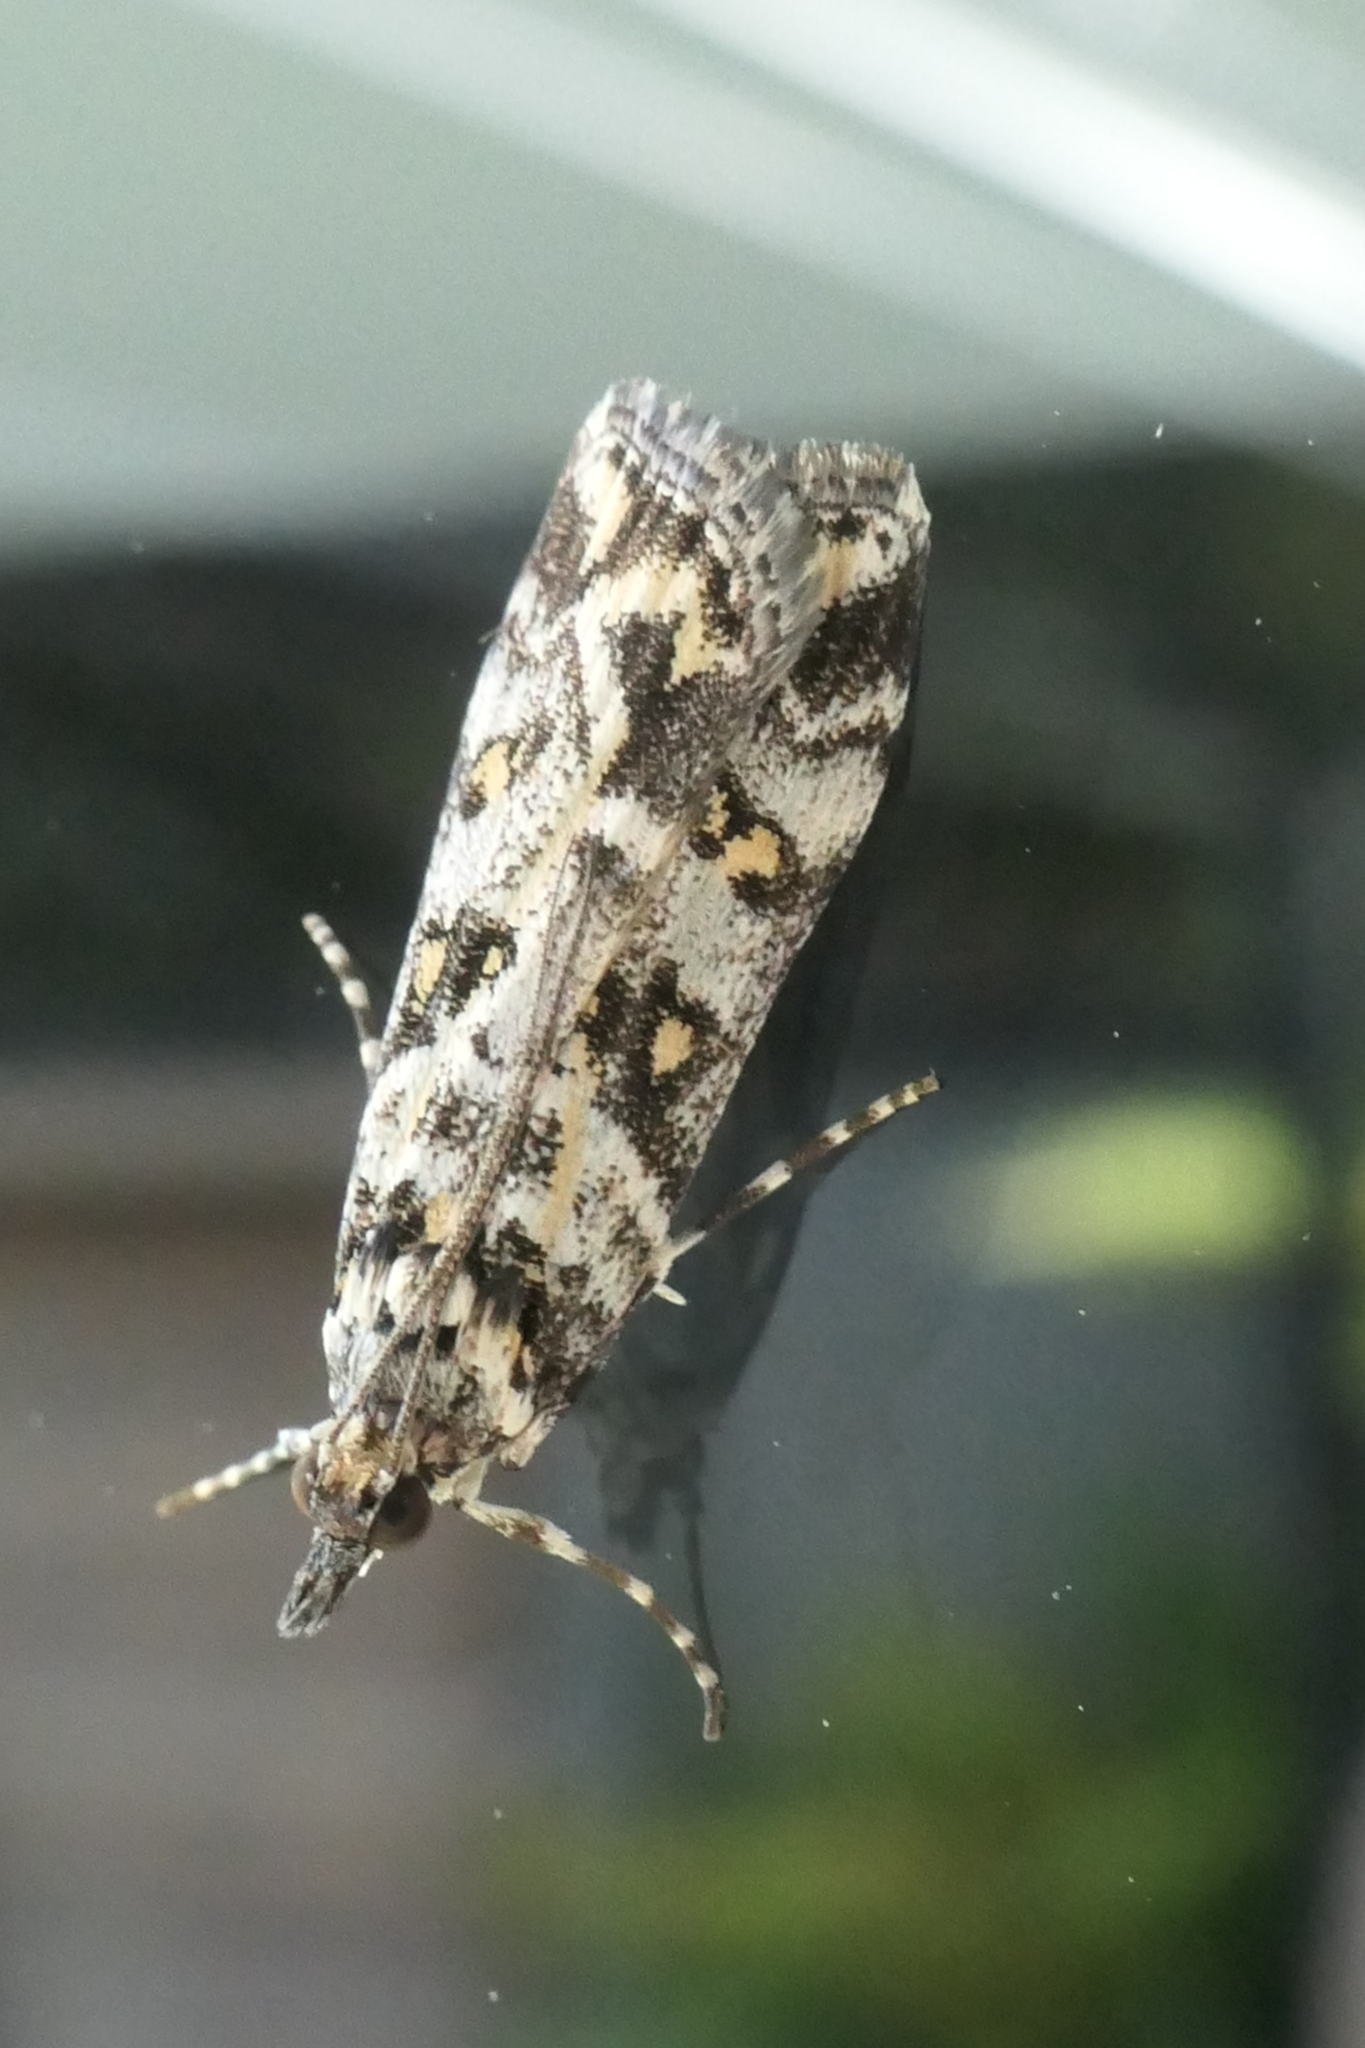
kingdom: Animalia
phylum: Arthropoda
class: Insecta
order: Lepidoptera
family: Crambidae
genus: Eudonia
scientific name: Eudonia diphtheralis
